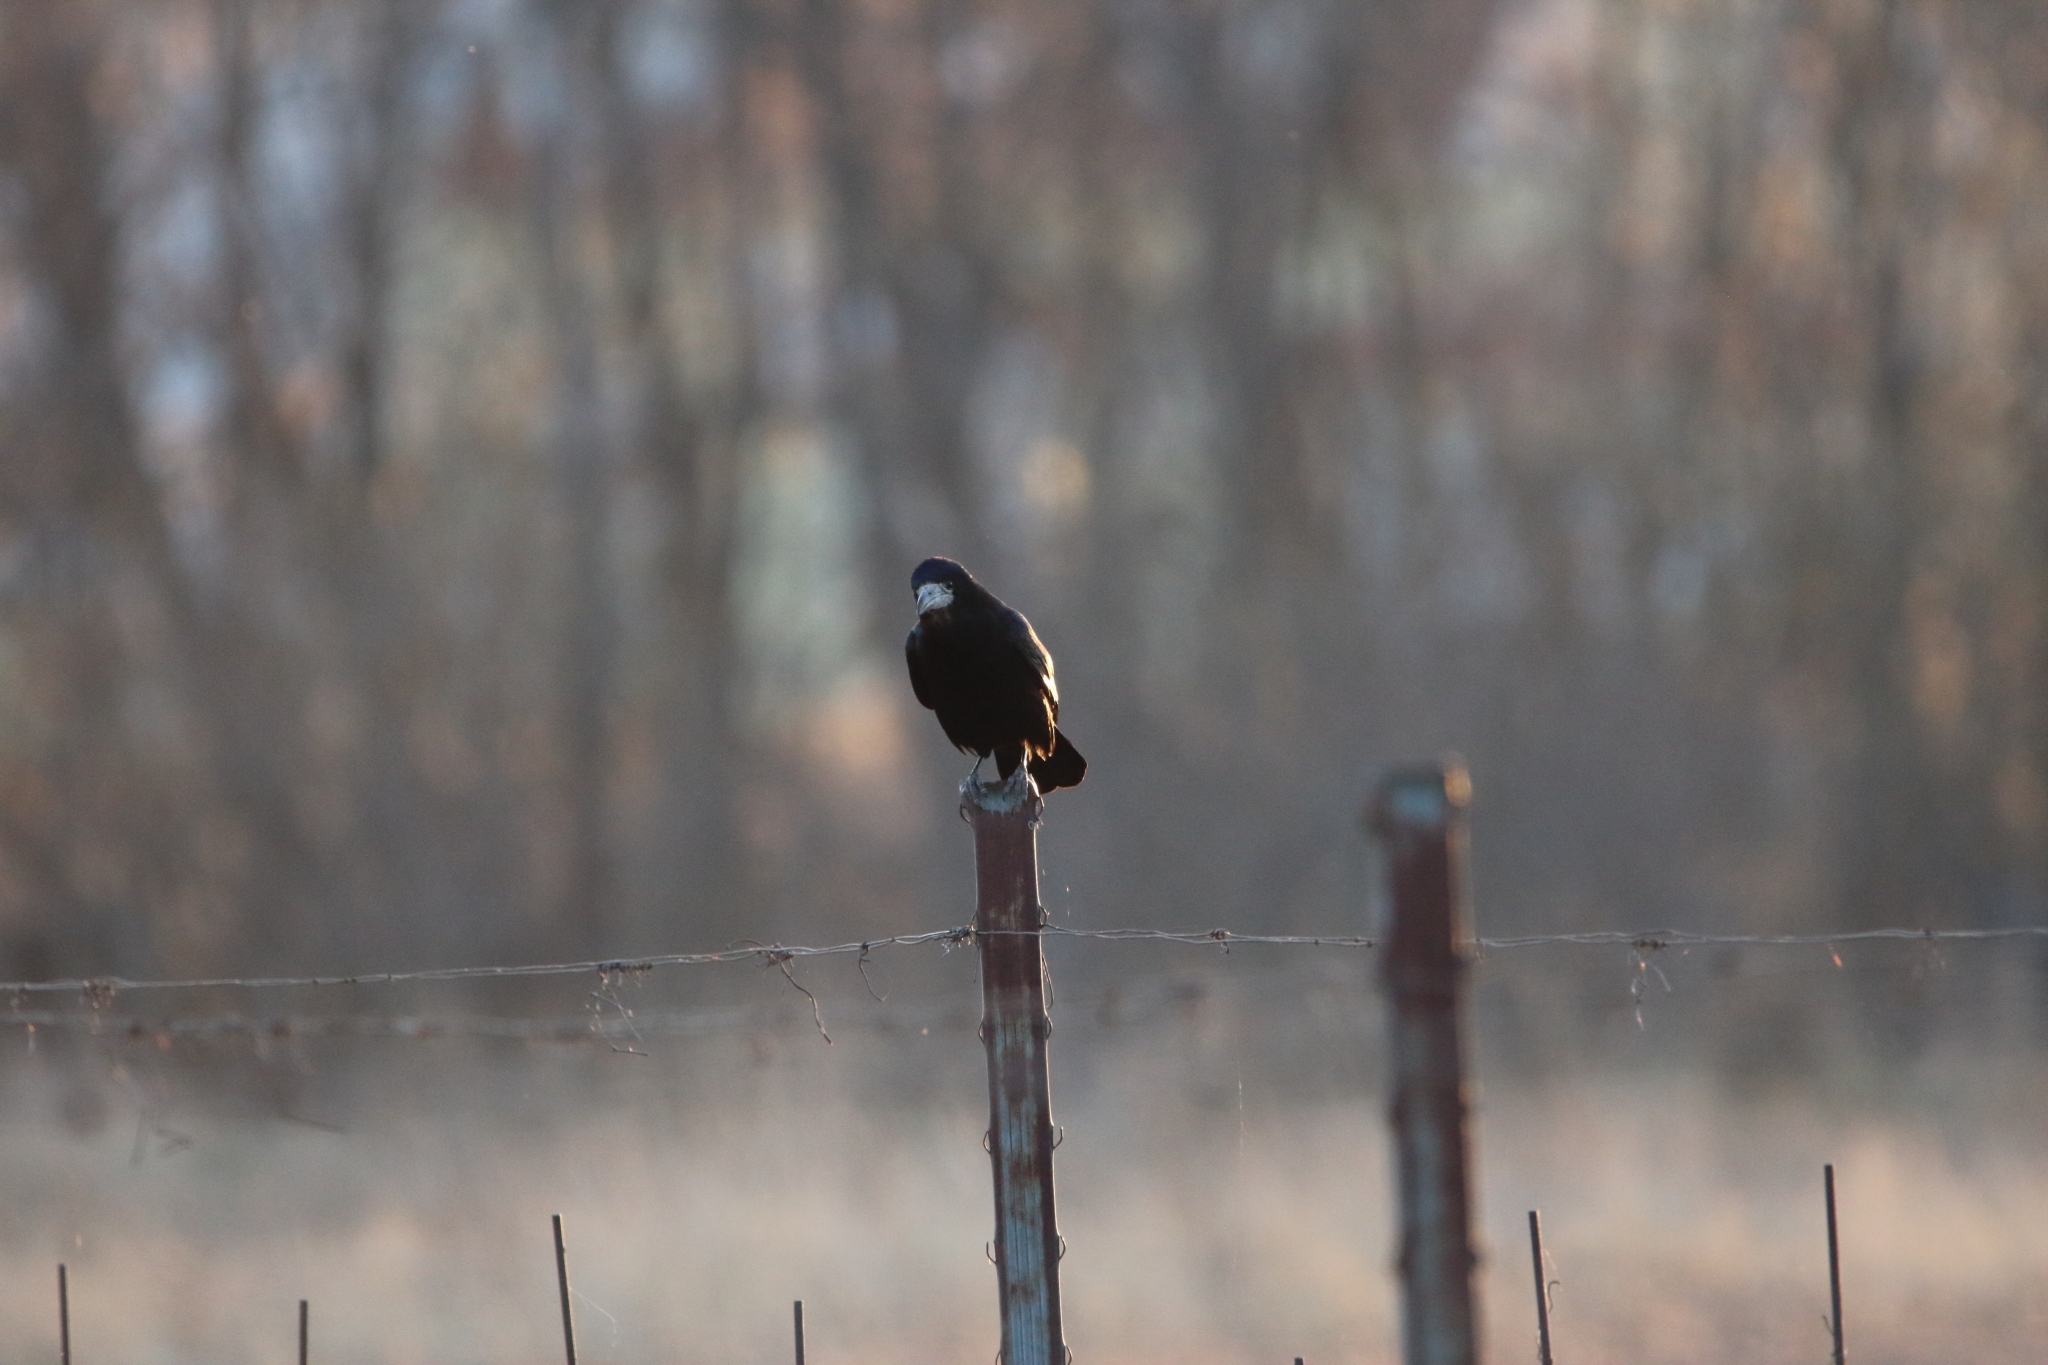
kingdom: Animalia
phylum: Chordata
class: Aves
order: Passeriformes
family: Corvidae
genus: Corvus
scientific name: Corvus frugilegus
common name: Rook
